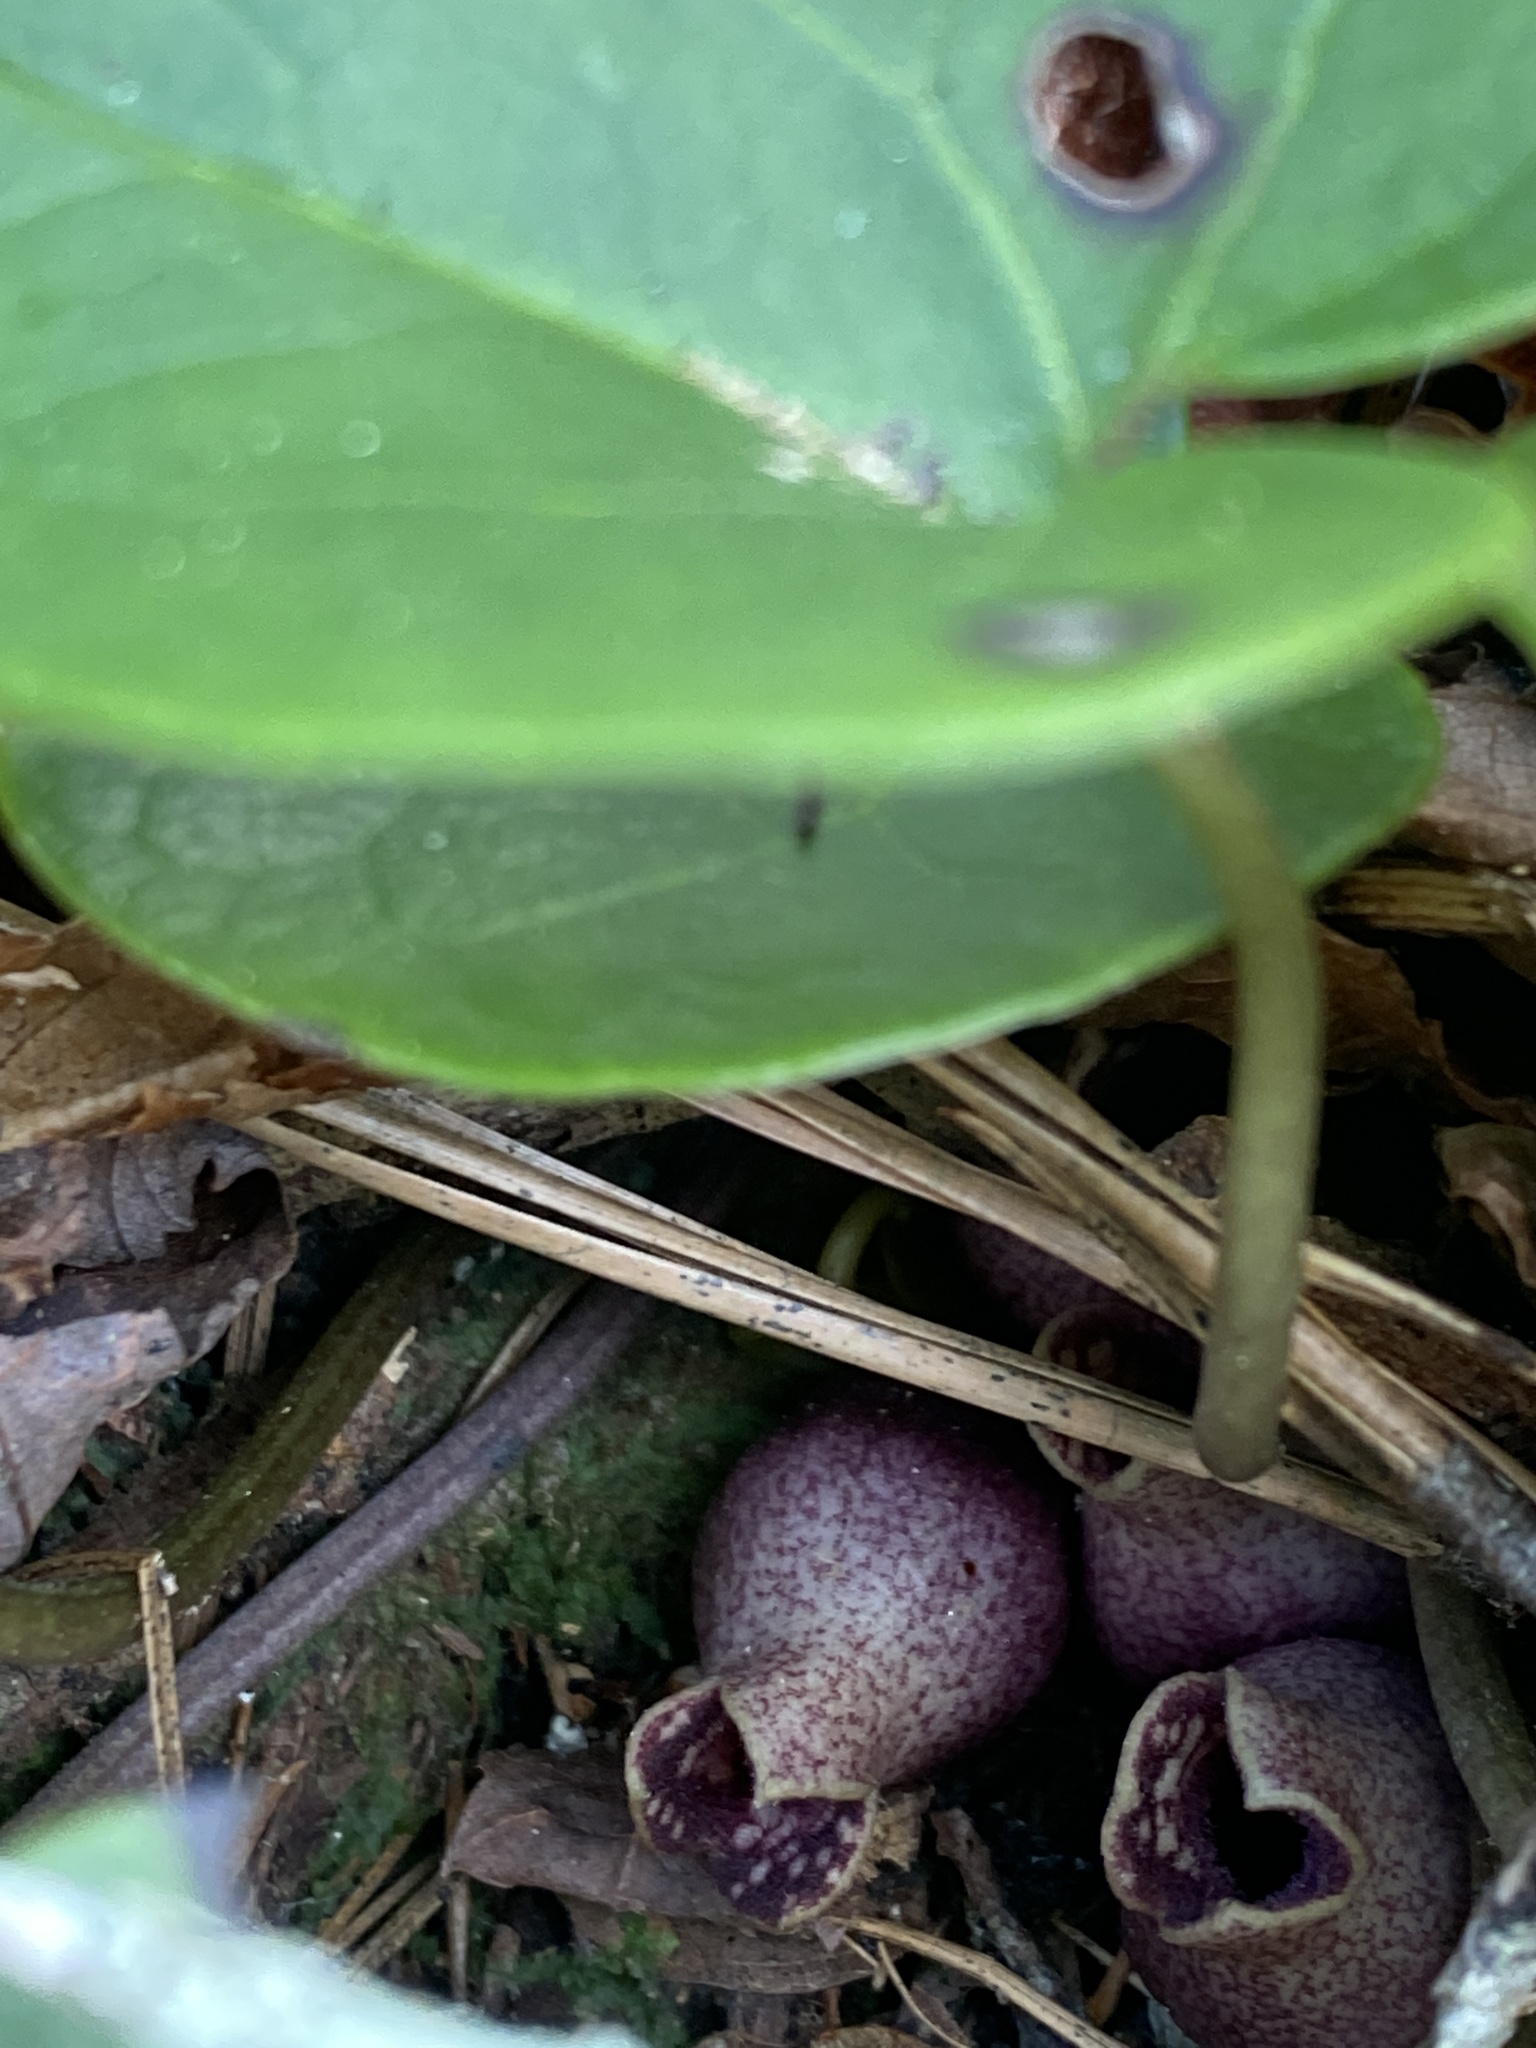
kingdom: Plantae
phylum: Tracheophyta
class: Magnoliopsida
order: Piperales
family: Aristolochiaceae
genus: Hexastylis
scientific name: Hexastylis rhombiformis
